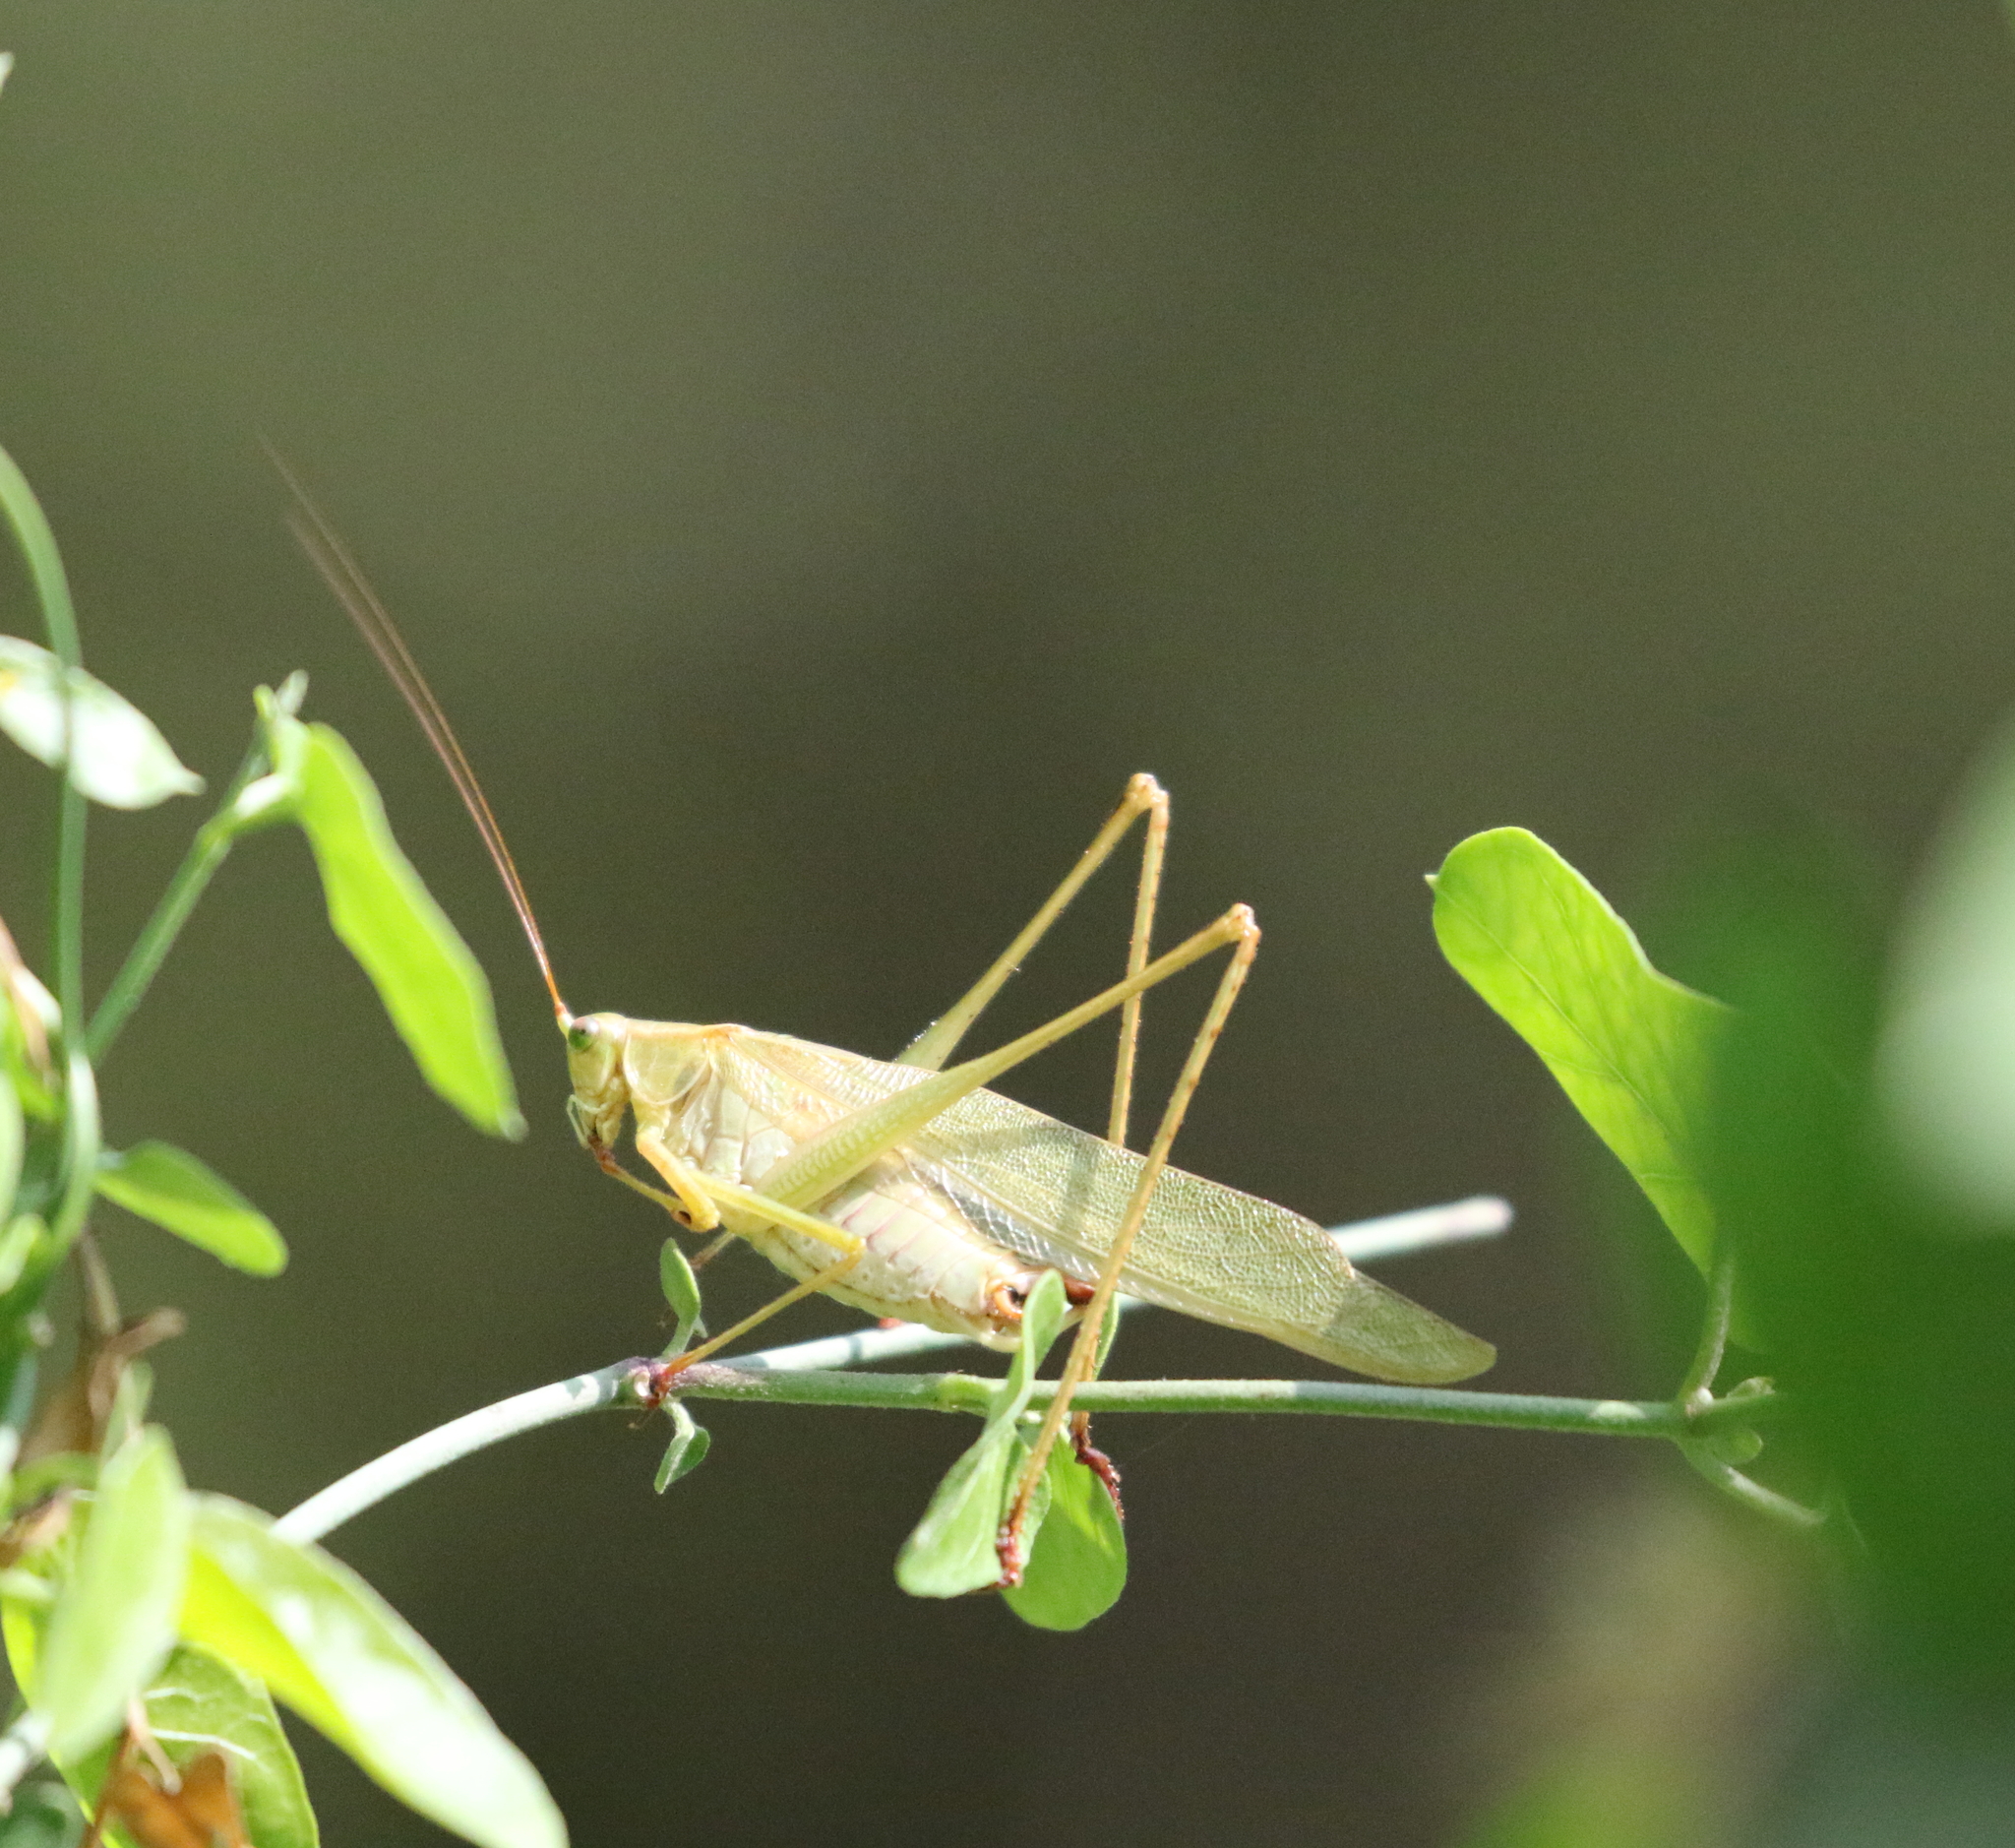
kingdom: Animalia
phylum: Arthropoda
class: Insecta
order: Orthoptera
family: Tettigoniidae
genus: Scudderia
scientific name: Scudderia furcata
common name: Fork-tailed bush katydid
